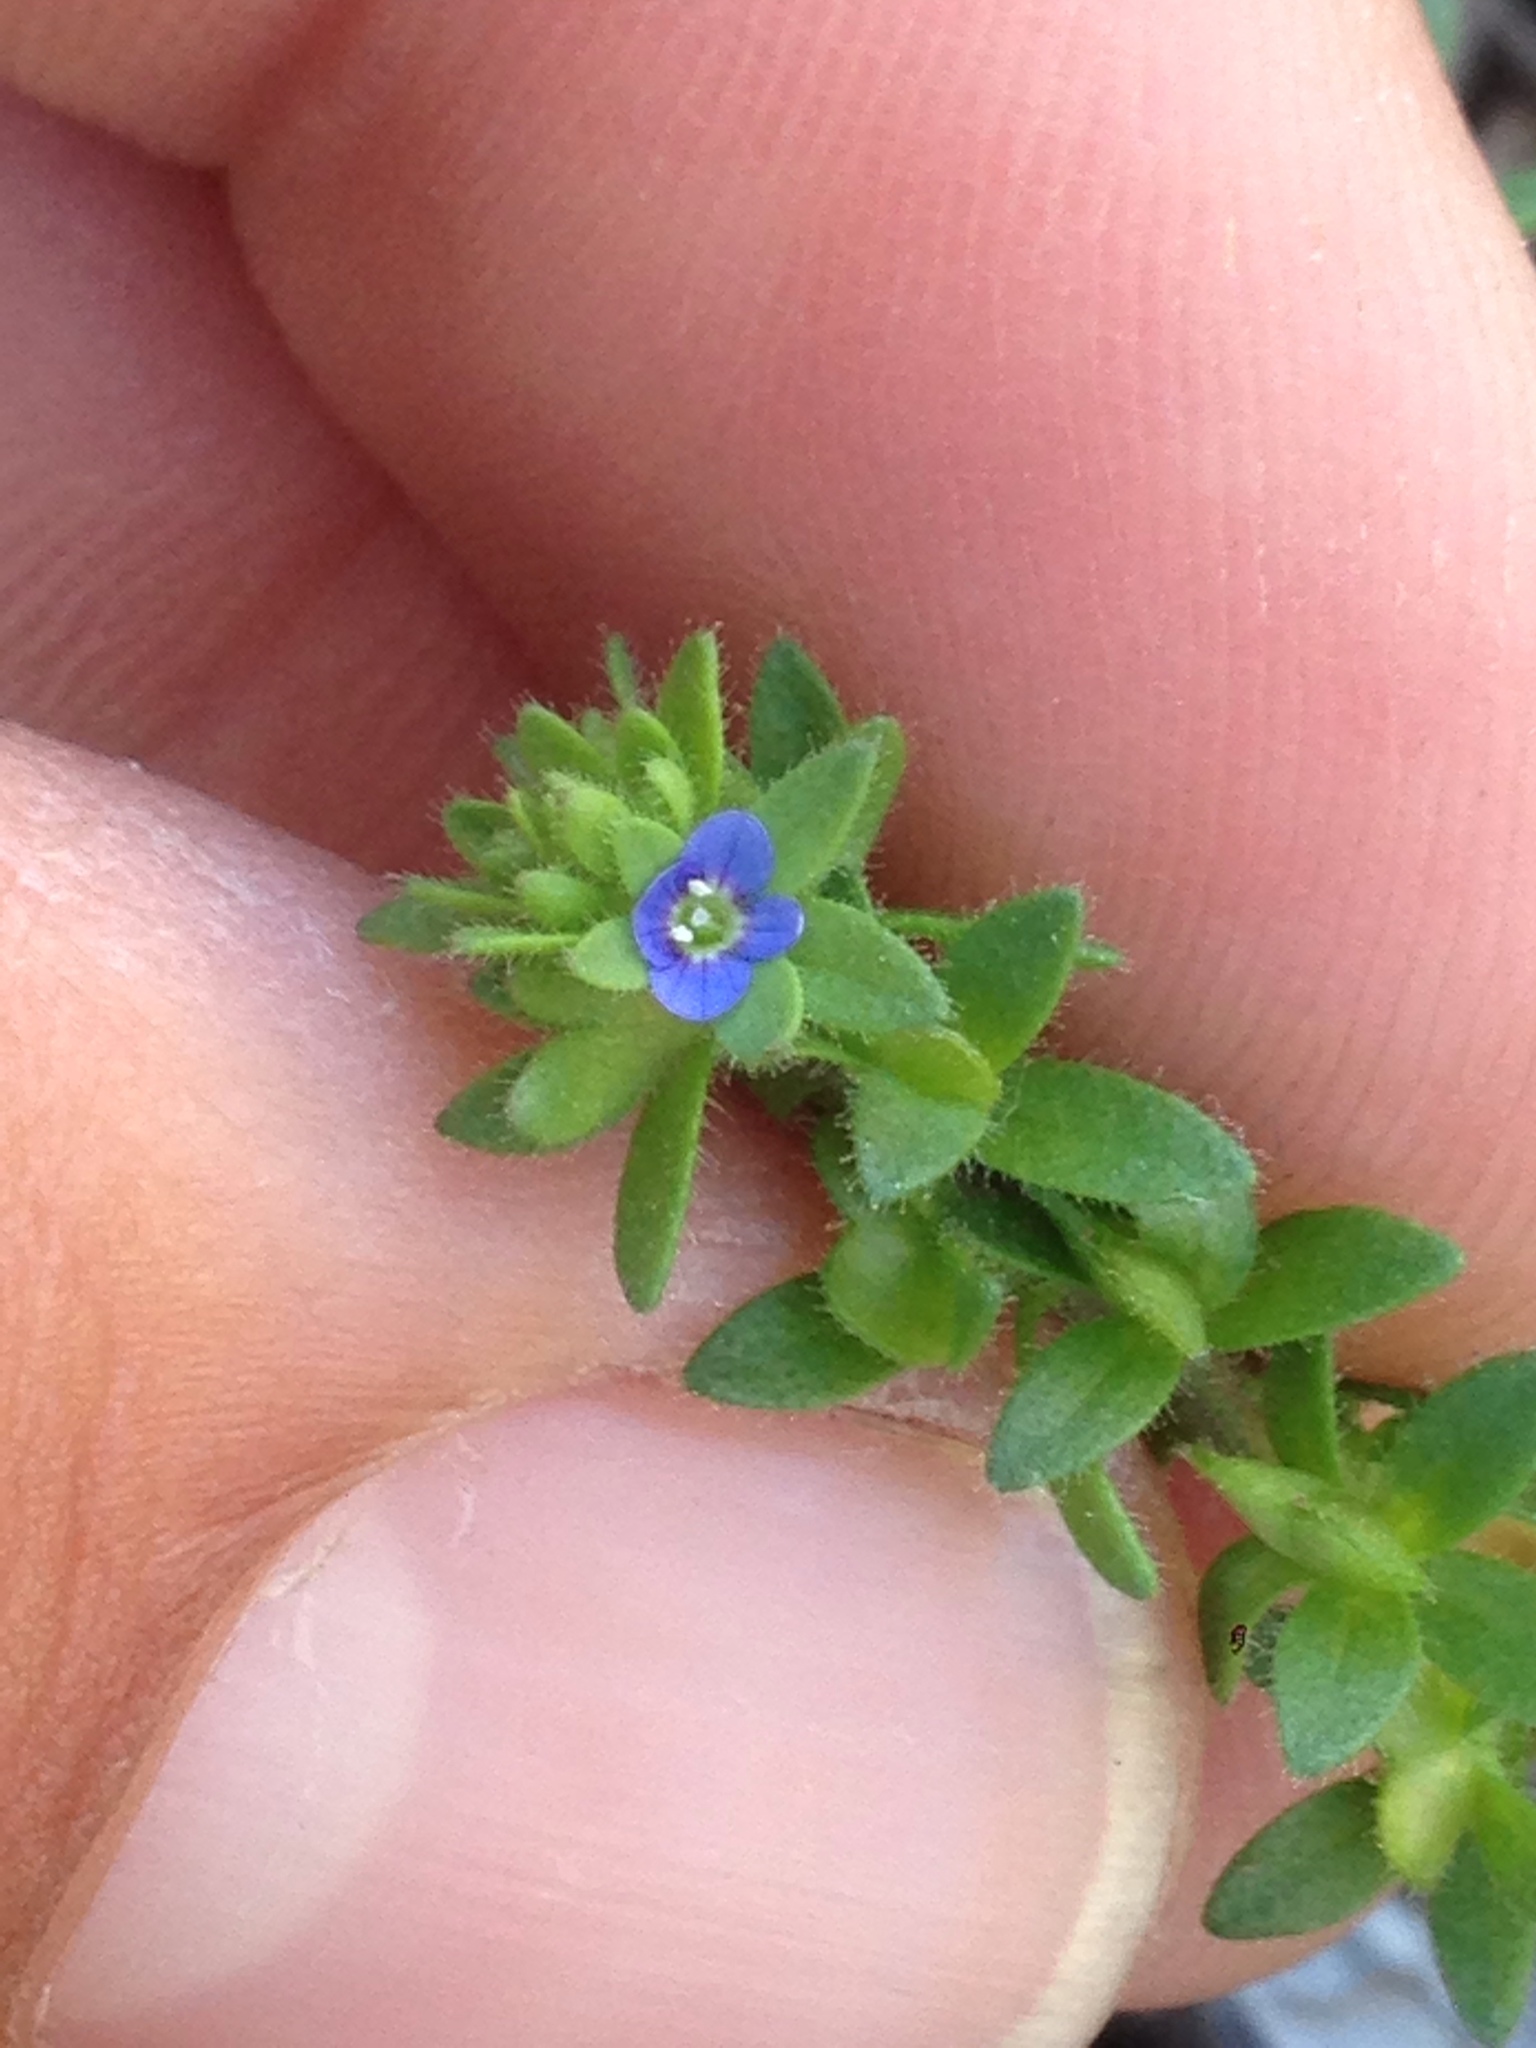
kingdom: Plantae
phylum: Tracheophyta
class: Magnoliopsida
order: Lamiales
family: Plantaginaceae
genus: Veronica
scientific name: Veronica arvensis
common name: Corn speedwell
